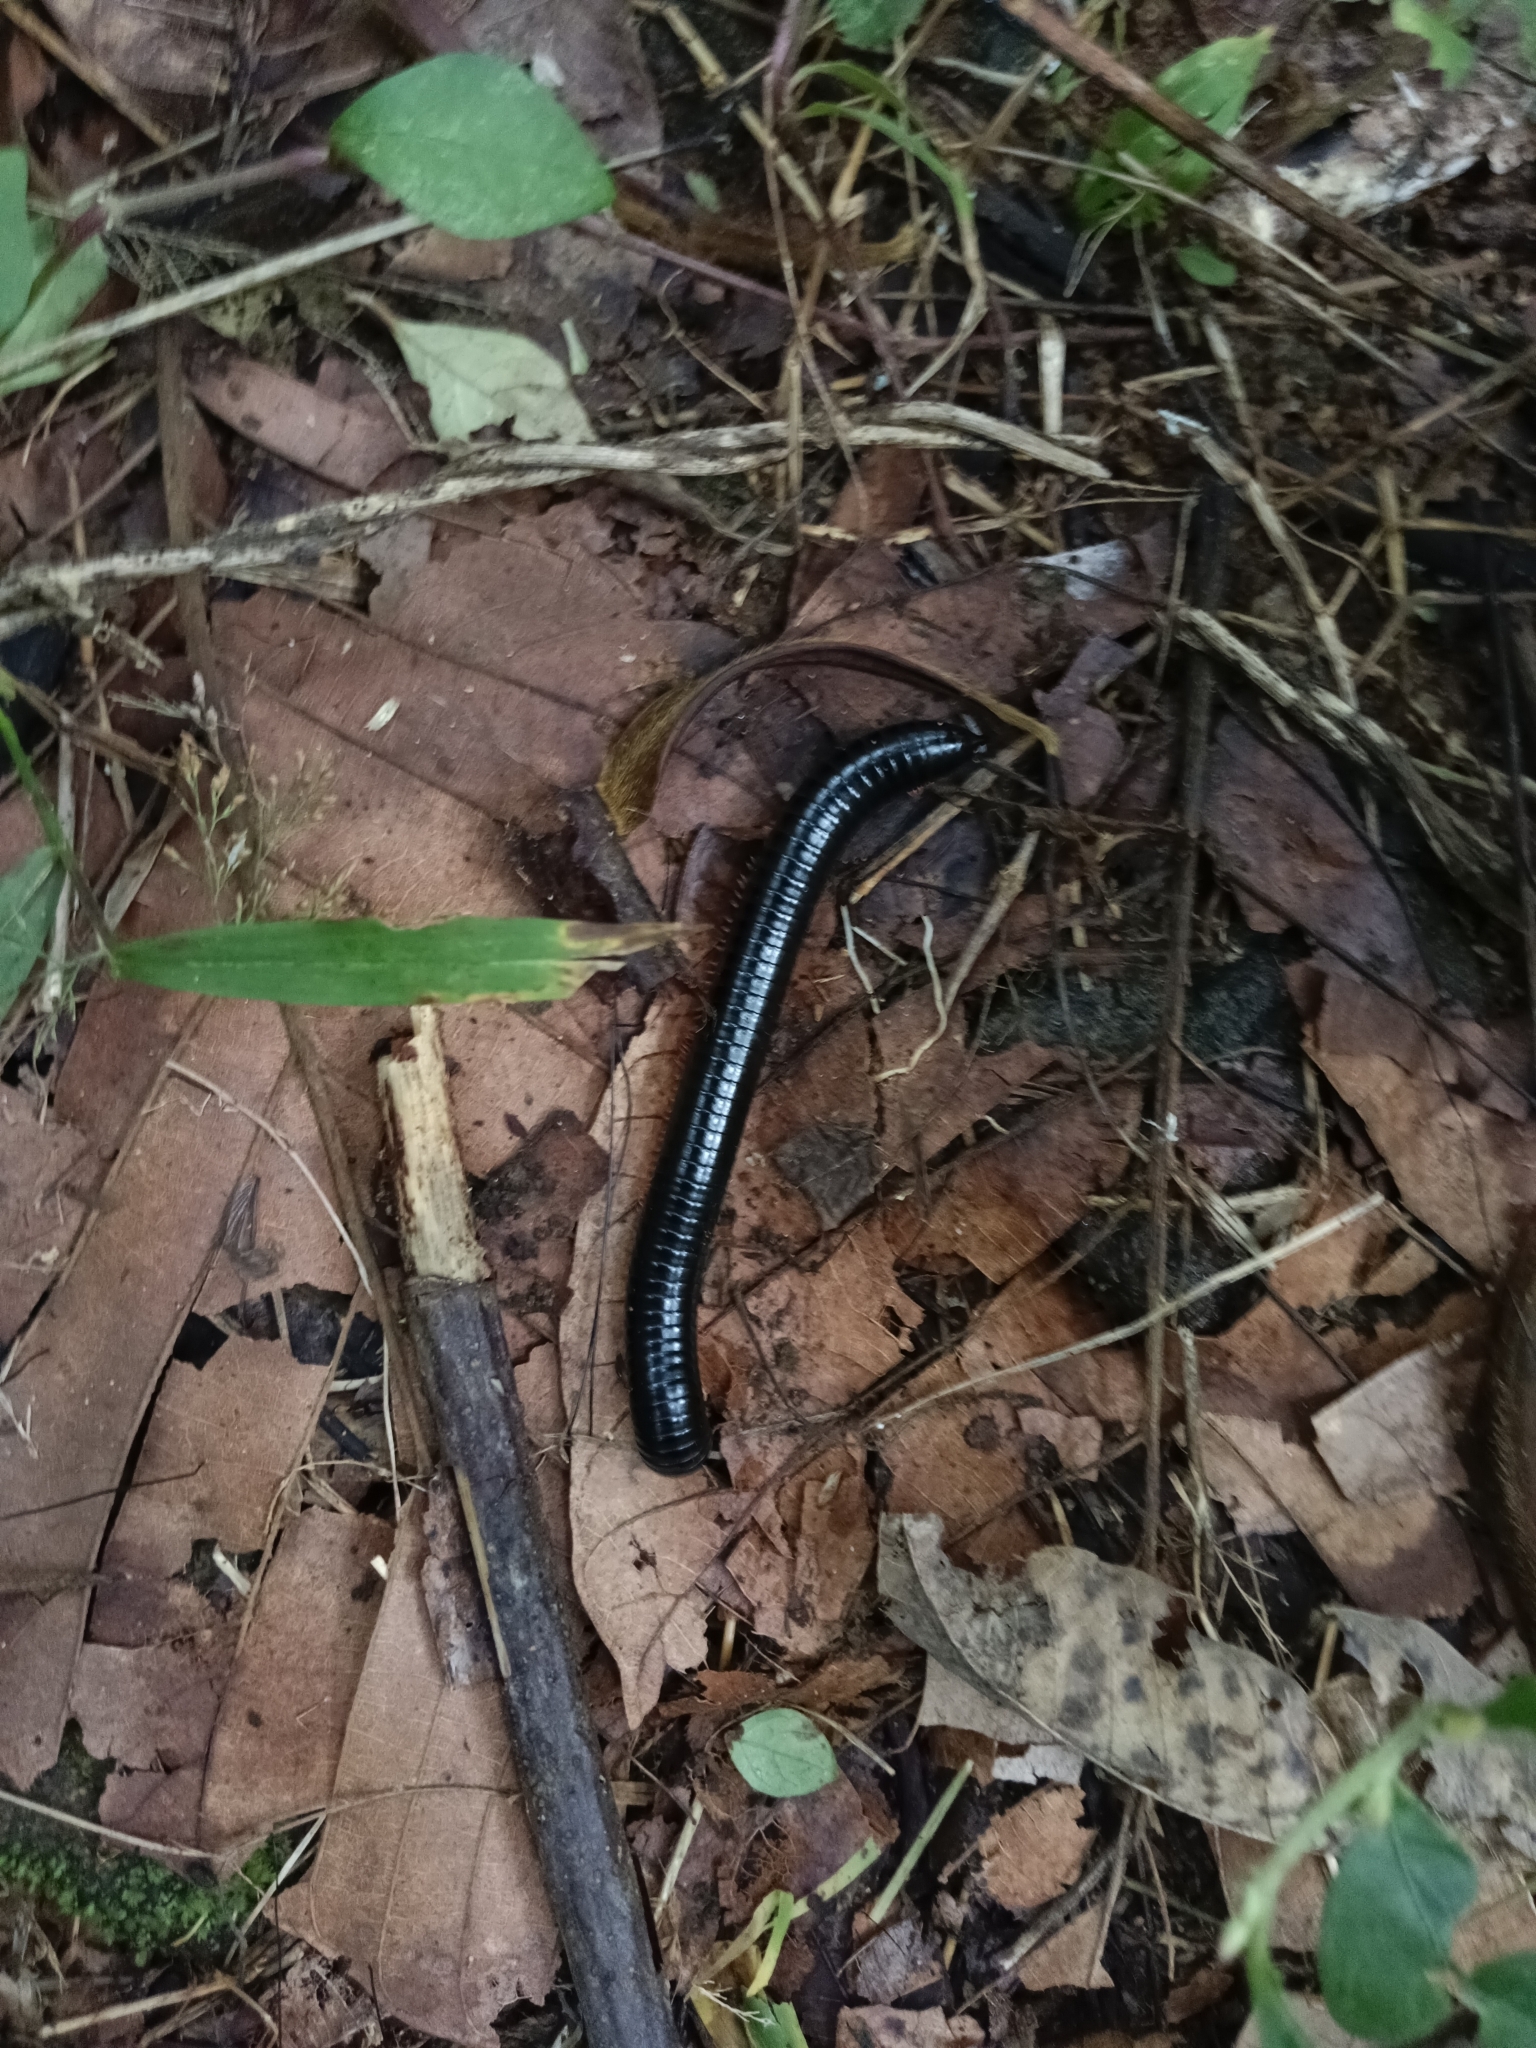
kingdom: Animalia
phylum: Arthropoda
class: Diplopoda
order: Spirostreptida
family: Harpagophoridae
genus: Phyllogonostreptus
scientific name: Phyllogonostreptus nigrolabiatus
